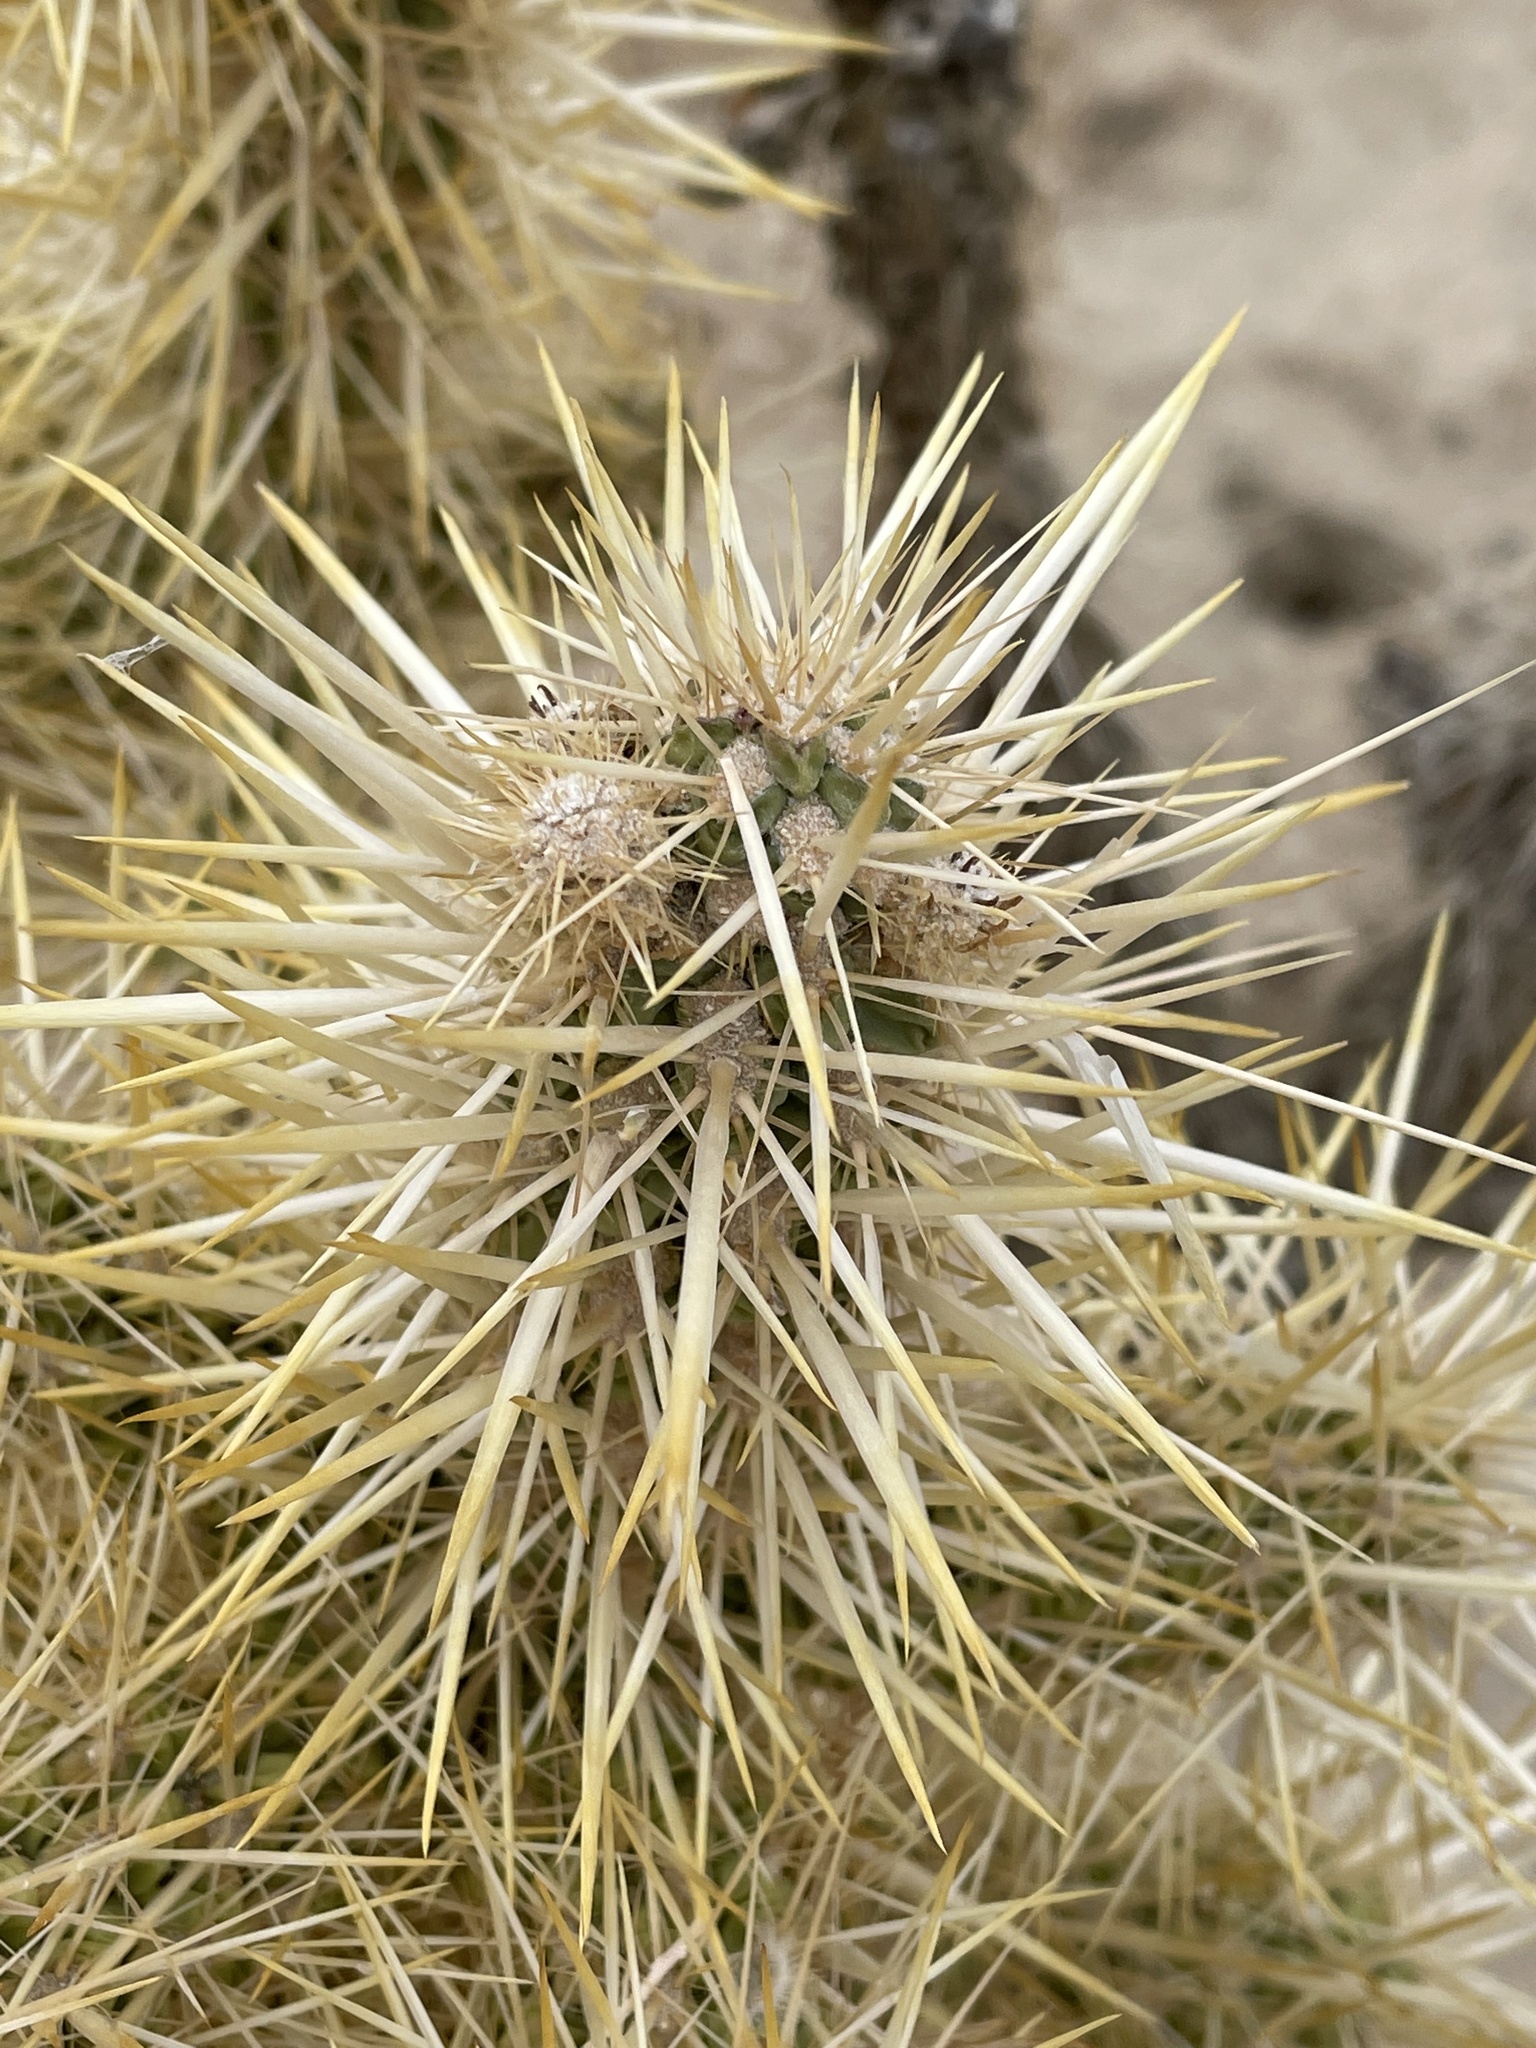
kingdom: Plantae
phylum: Tracheophyta
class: Magnoliopsida
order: Caryophyllales
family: Cactaceae
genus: Cylindropuntia
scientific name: Cylindropuntia echinocarpa
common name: Ground cholla
